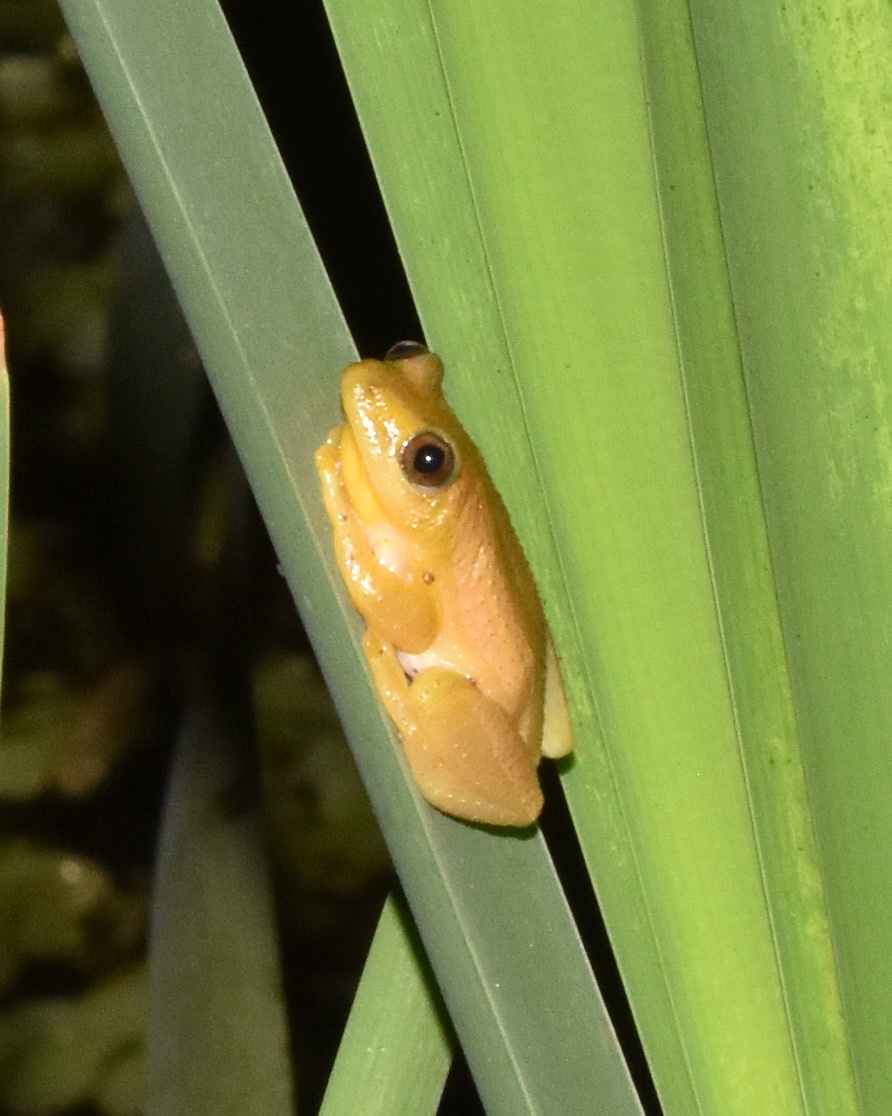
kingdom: Animalia
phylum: Chordata
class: Amphibia
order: Anura
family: Hyperoliidae
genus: Afrixalus
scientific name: Afrixalus fornasini
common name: Fornasini's spiny reed frog
